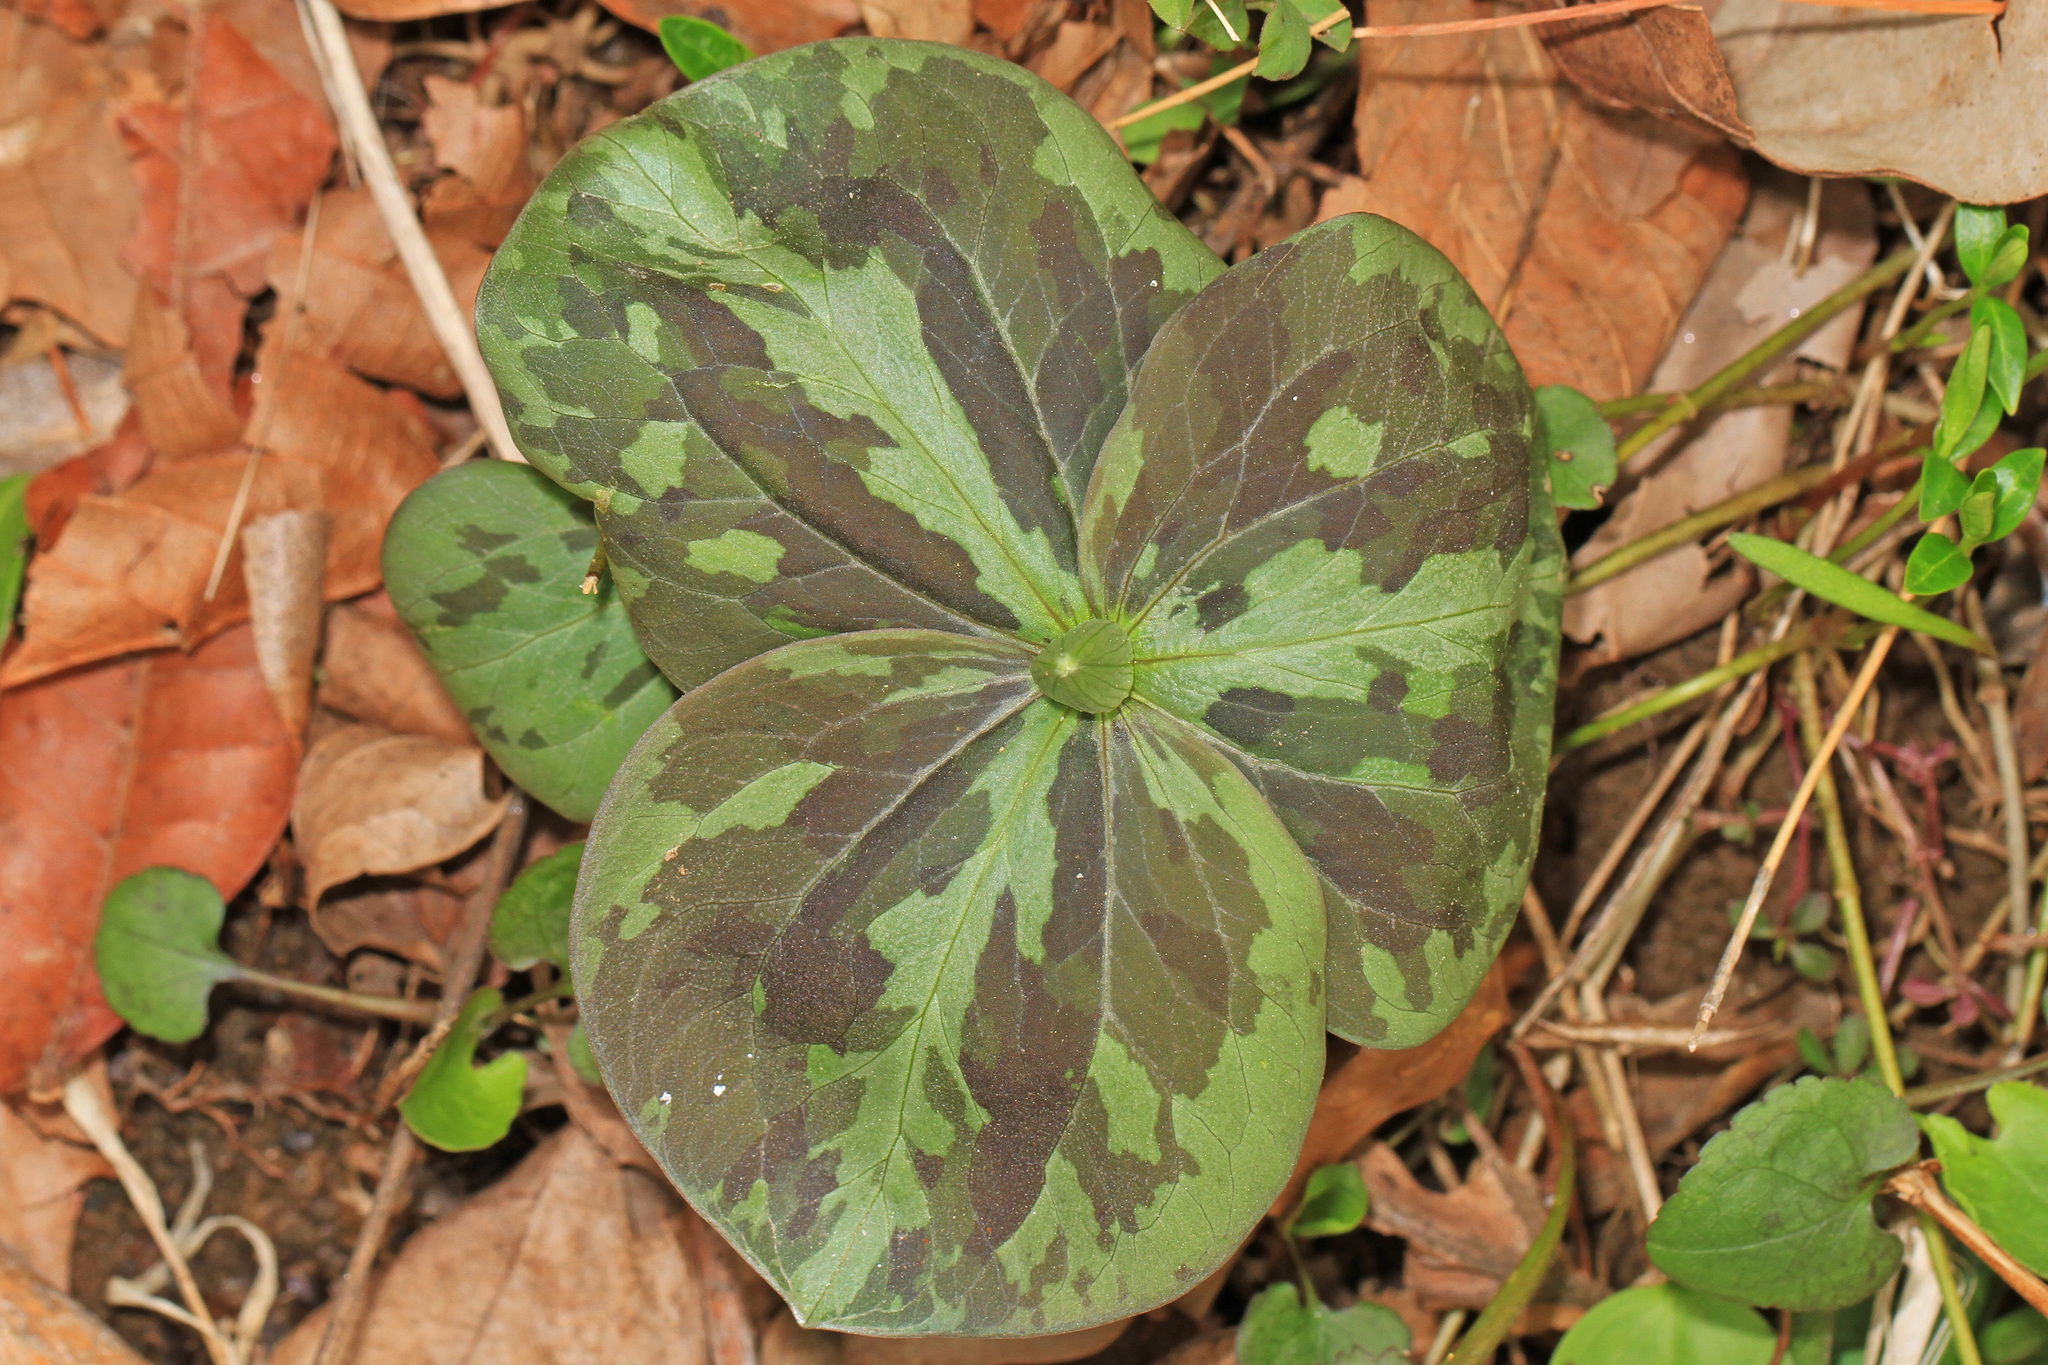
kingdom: Plantae
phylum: Tracheophyta
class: Liliopsida
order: Liliales
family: Melanthiaceae
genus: Trillium
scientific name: Trillium sessile
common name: Sessile trillium
